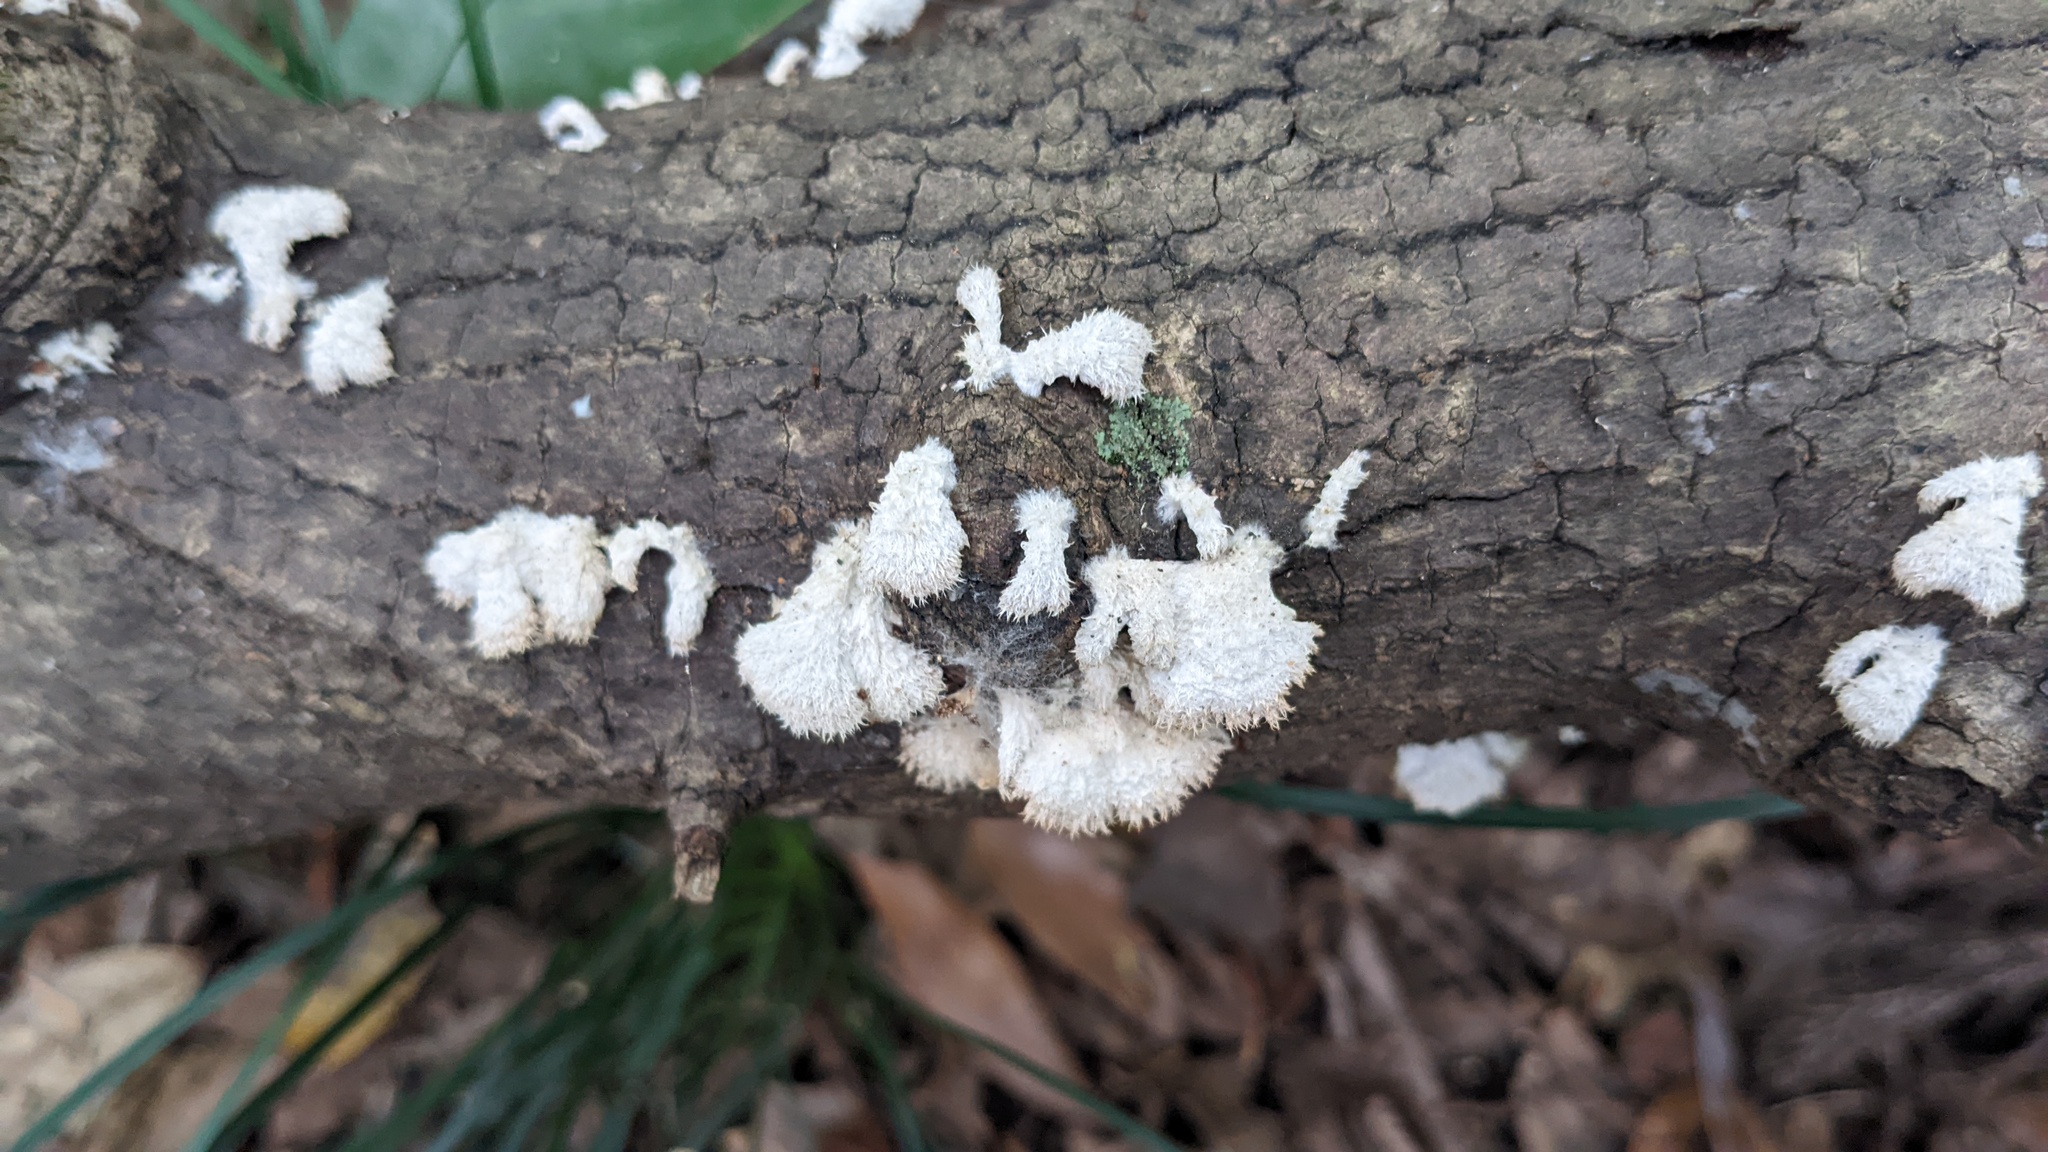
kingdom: Fungi
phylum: Basidiomycota
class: Agaricomycetes
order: Agaricales
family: Schizophyllaceae
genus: Schizophyllum
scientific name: Schizophyllum commune
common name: Common porecrust
